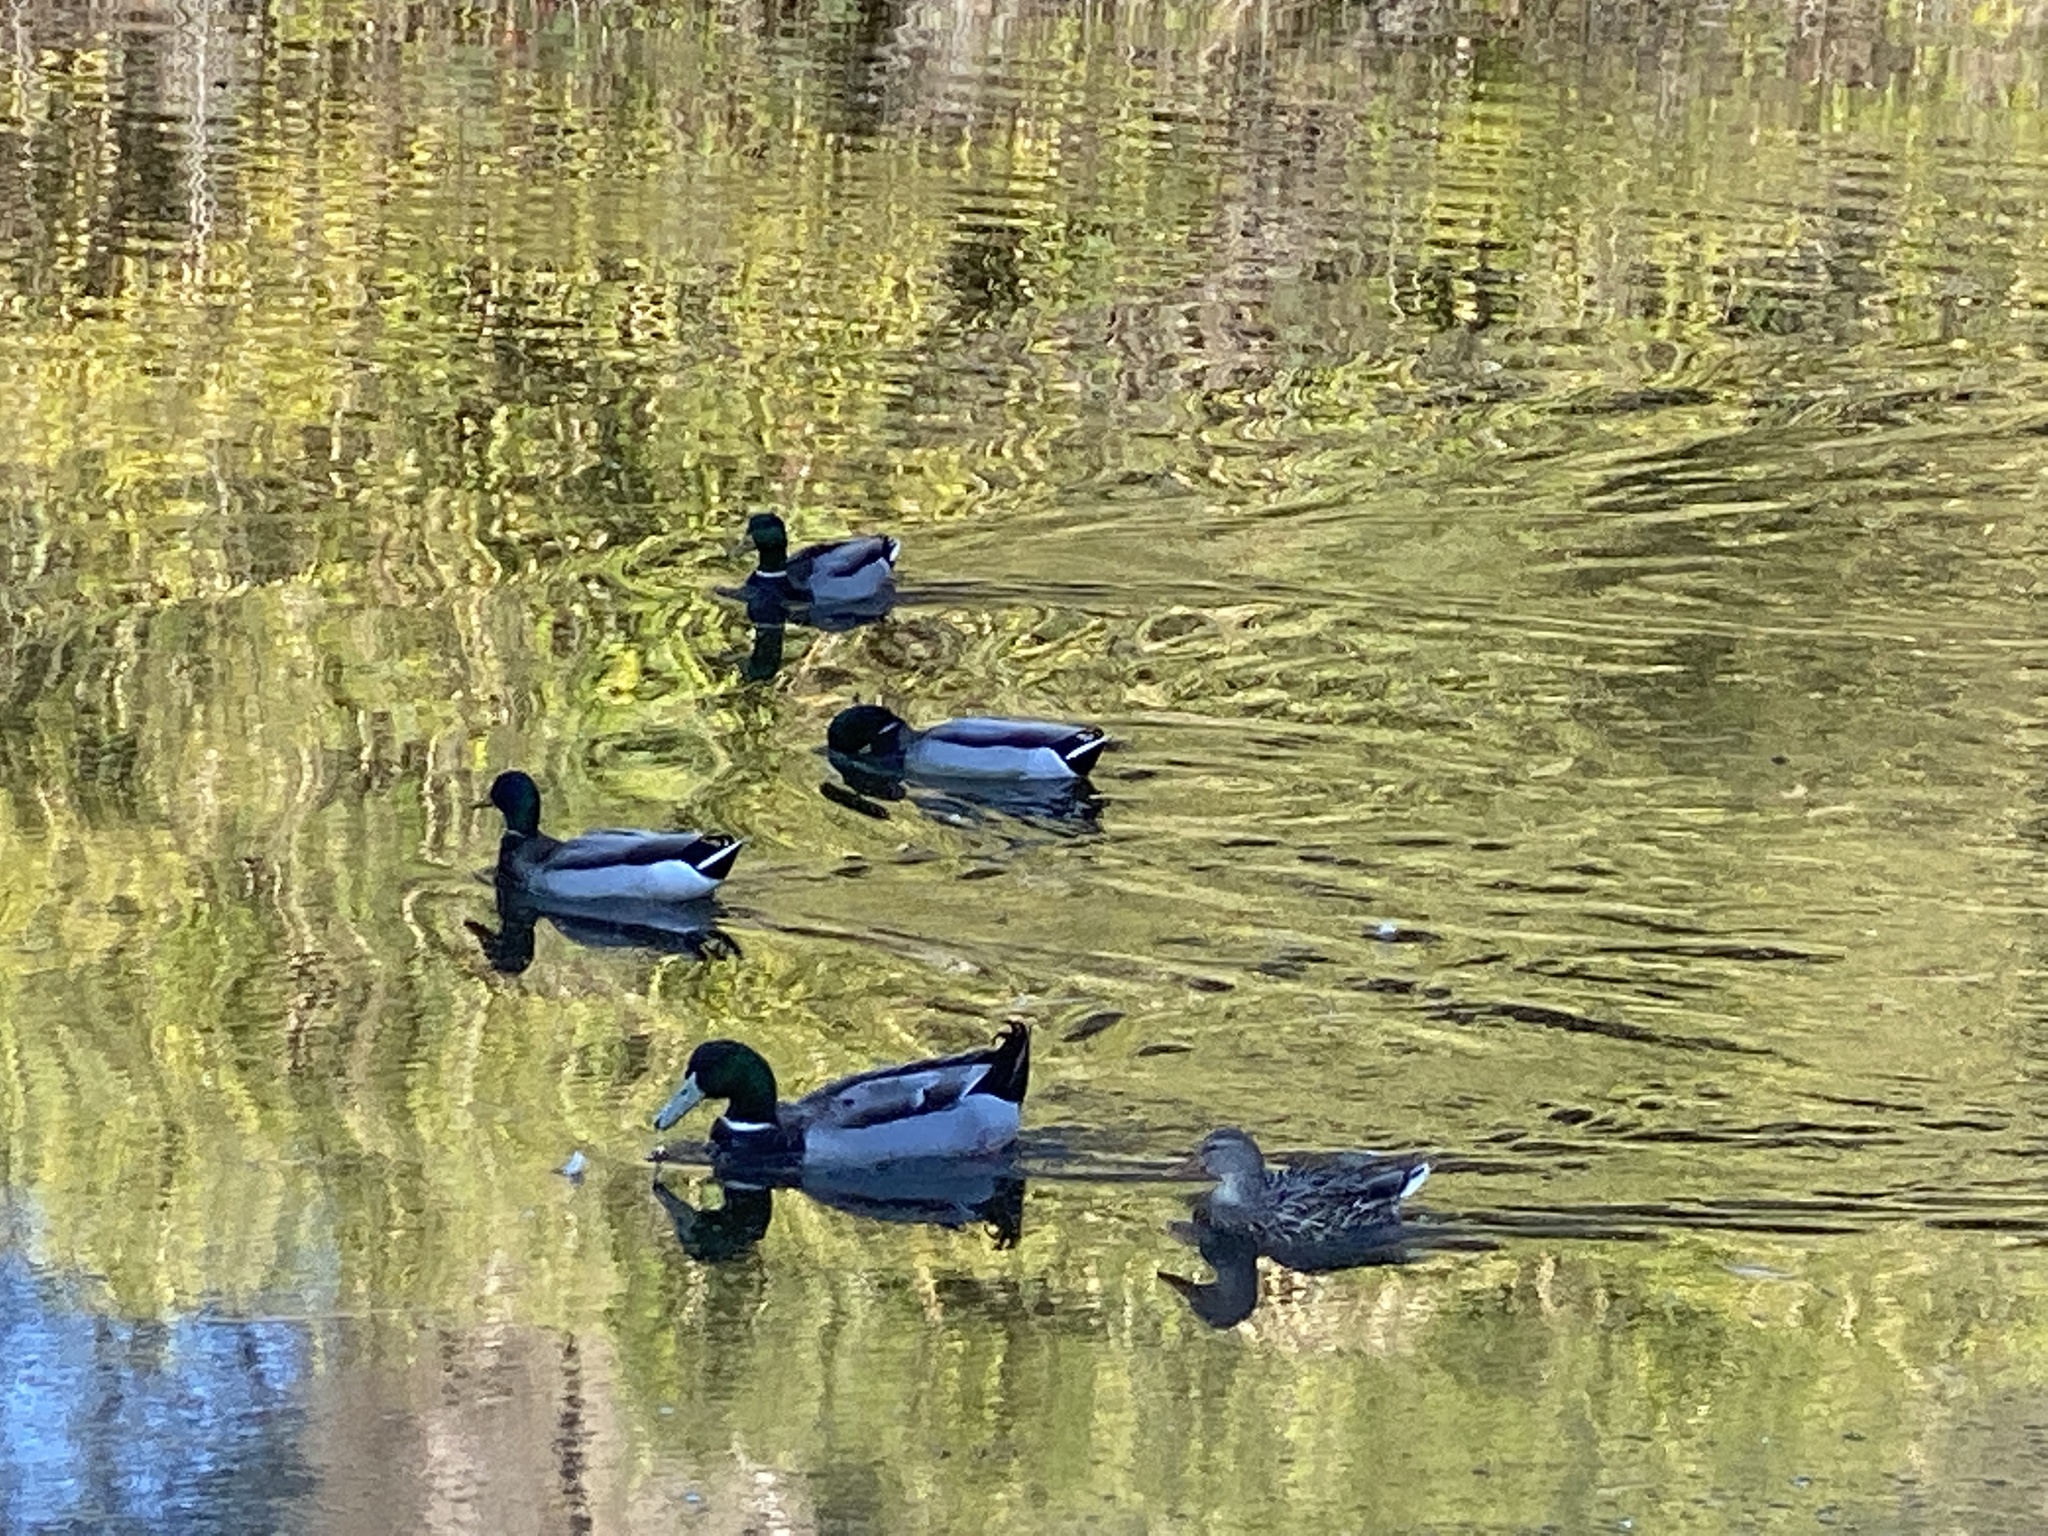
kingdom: Animalia
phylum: Chordata
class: Aves
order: Anseriformes
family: Anatidae
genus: Anas
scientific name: Anas platyrhynchos
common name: Mallard
